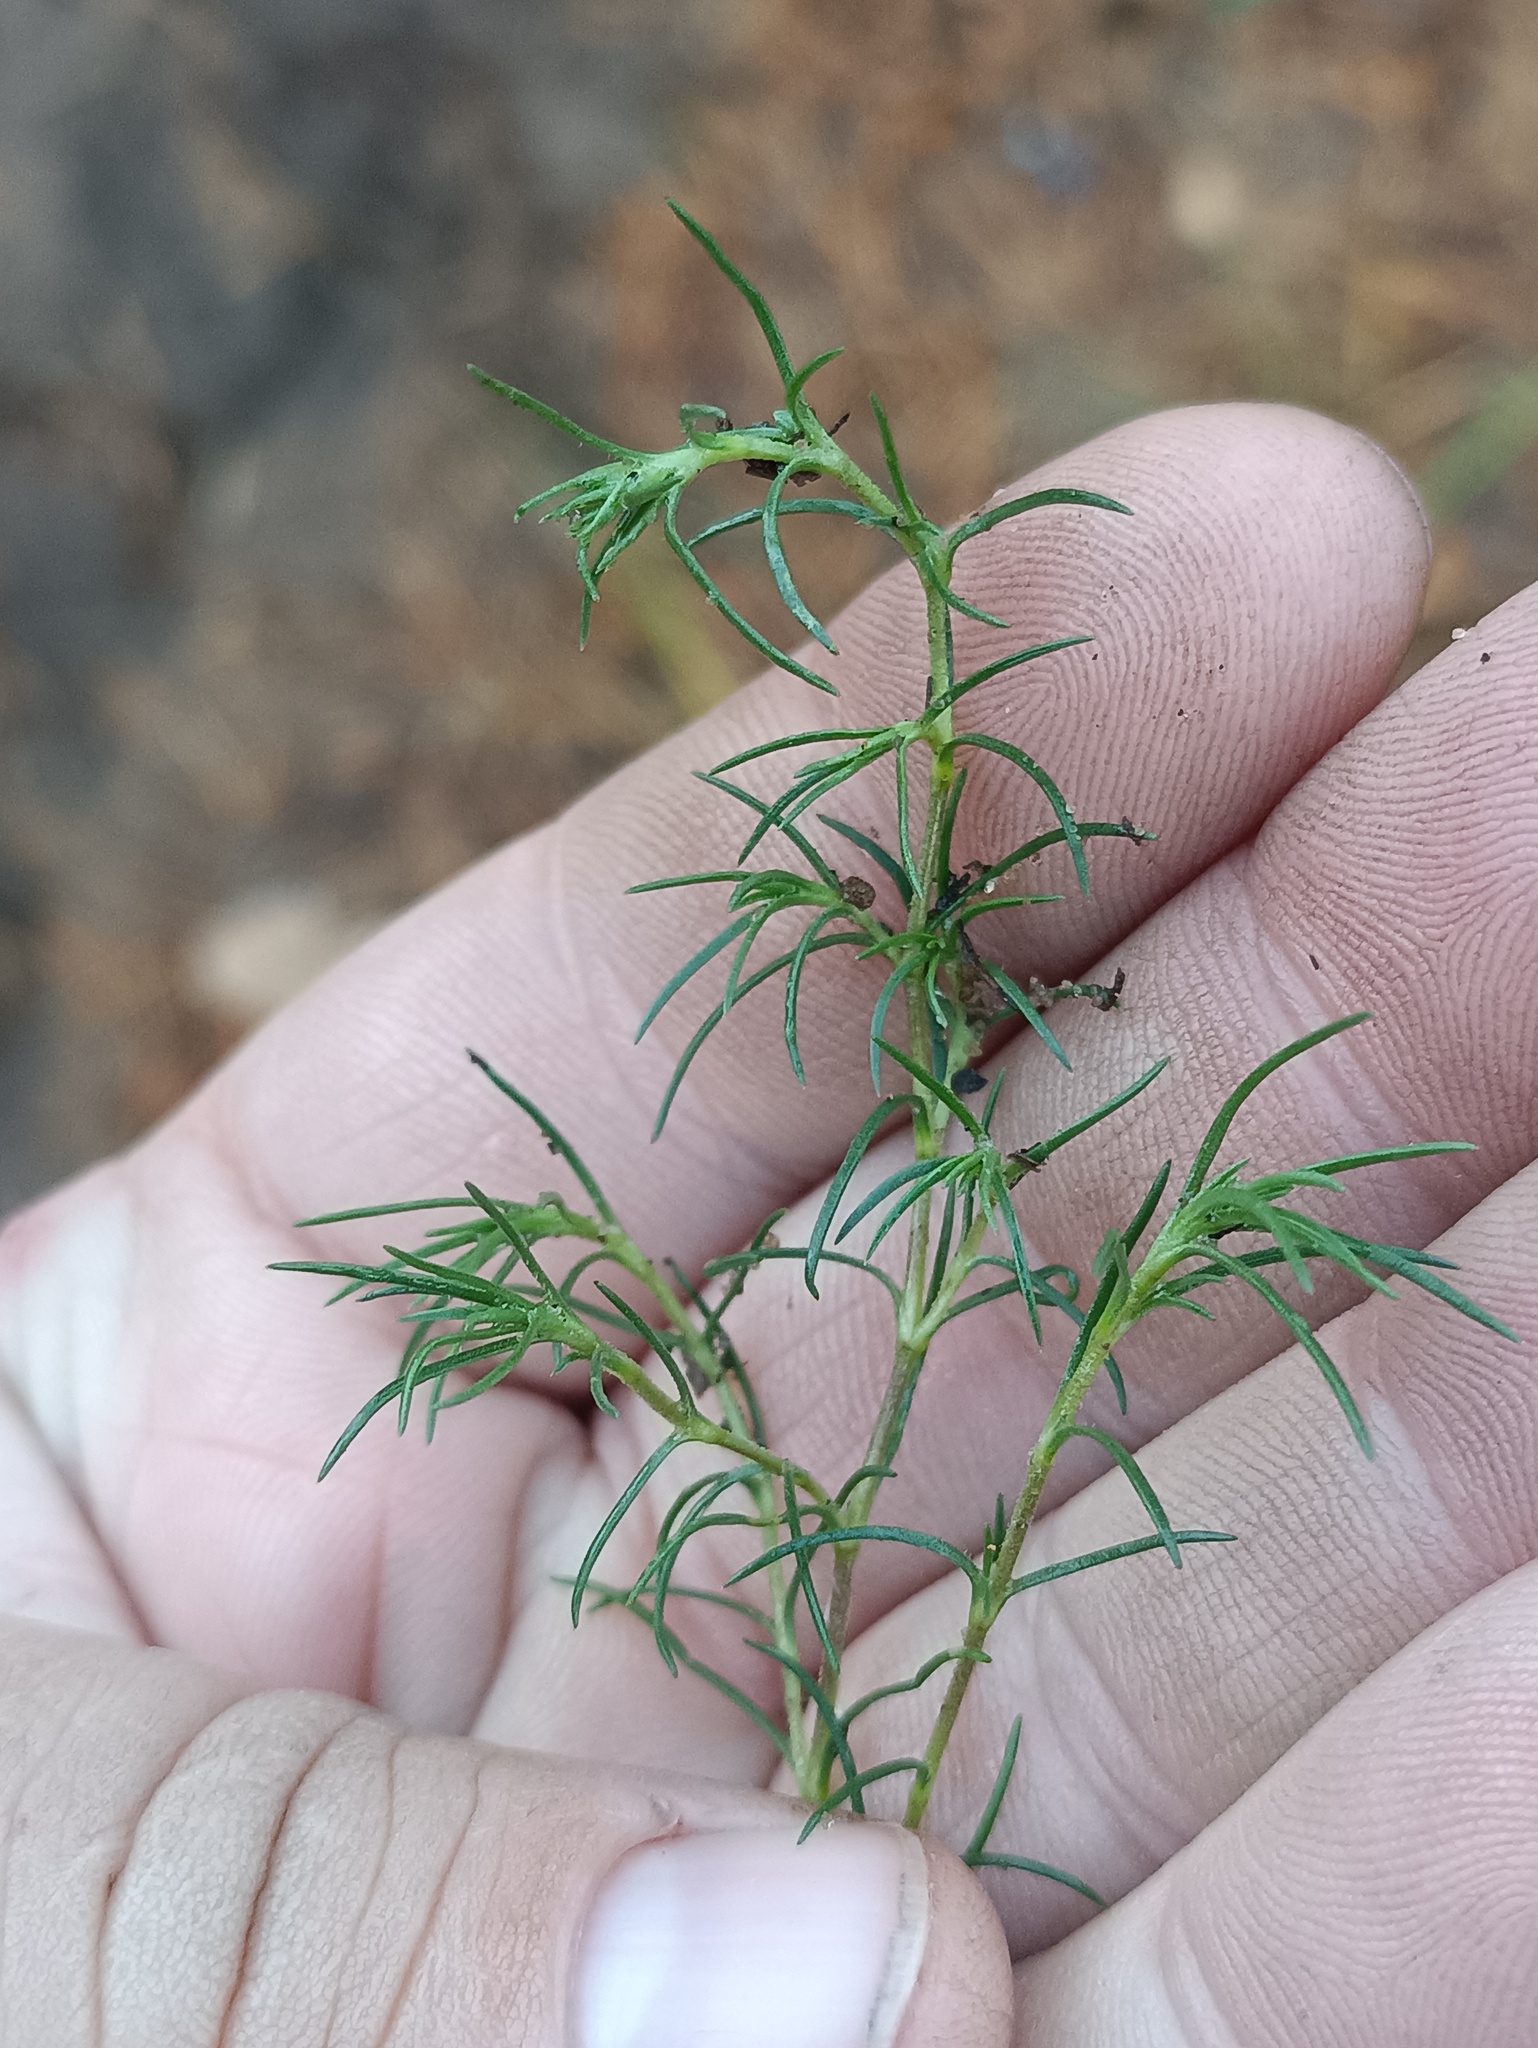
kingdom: Plantae
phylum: Tracheophyta
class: Magnoliopsida
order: Caryophyllales
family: Caryophyllaceae
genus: Spergularia
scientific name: Spergularia rubra
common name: Red sand-spurrey
